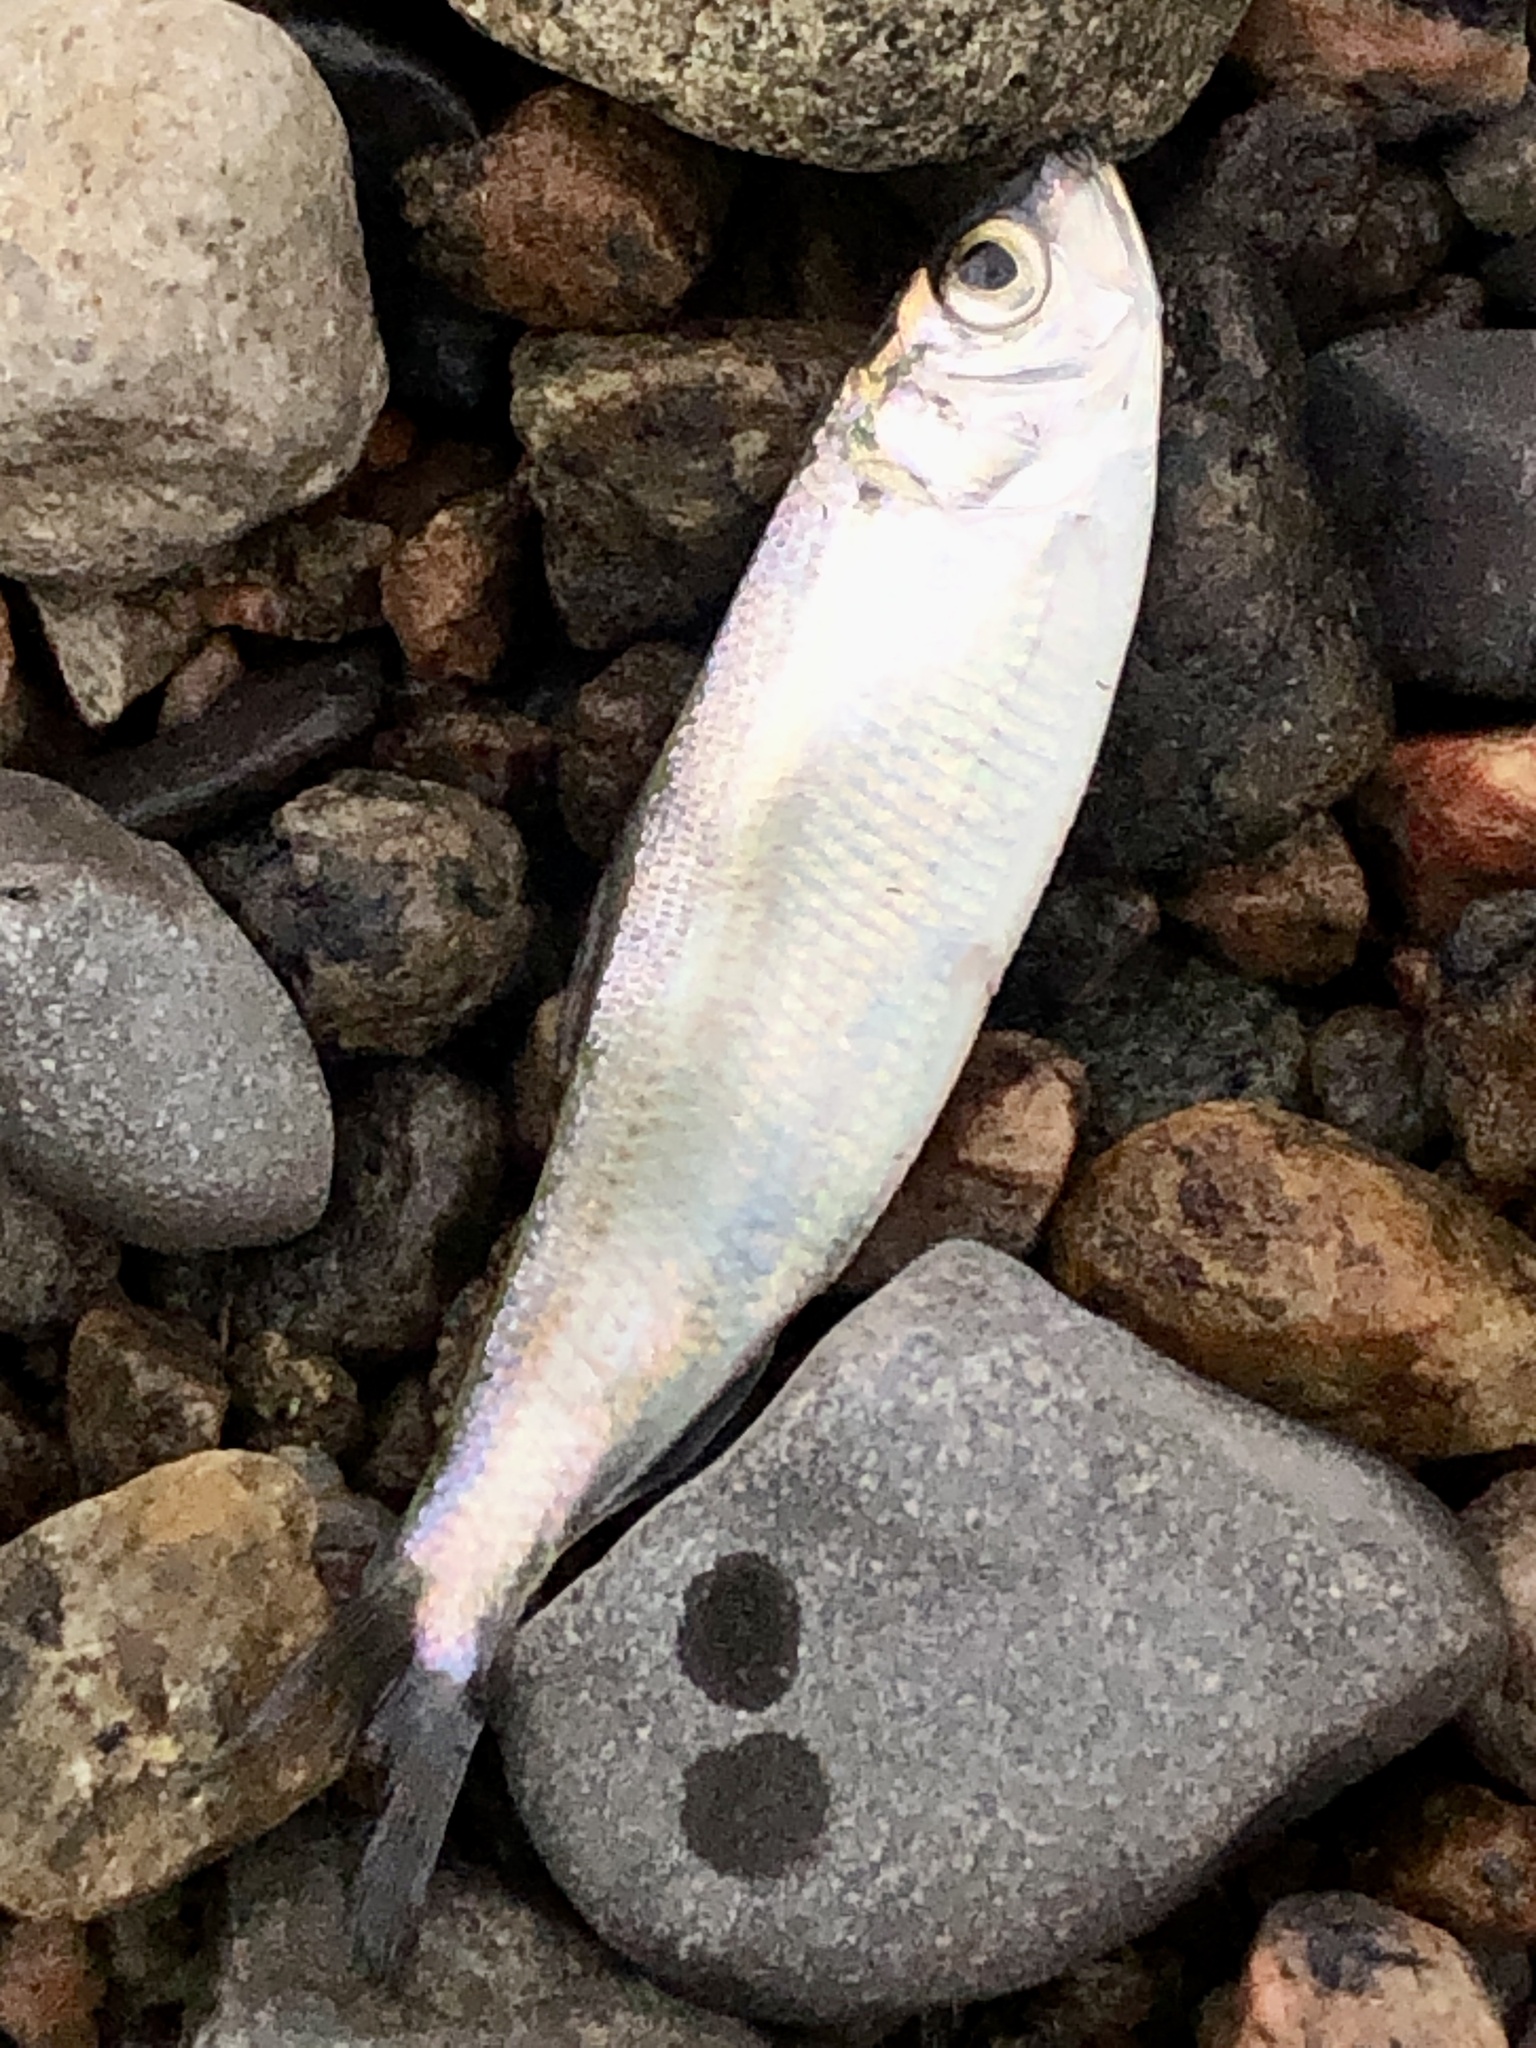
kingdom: Animalia
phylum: Chordata
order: Clupeiformes
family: Clupeidae
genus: Alosa
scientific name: Alosa pseudoharengus
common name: Alewife
